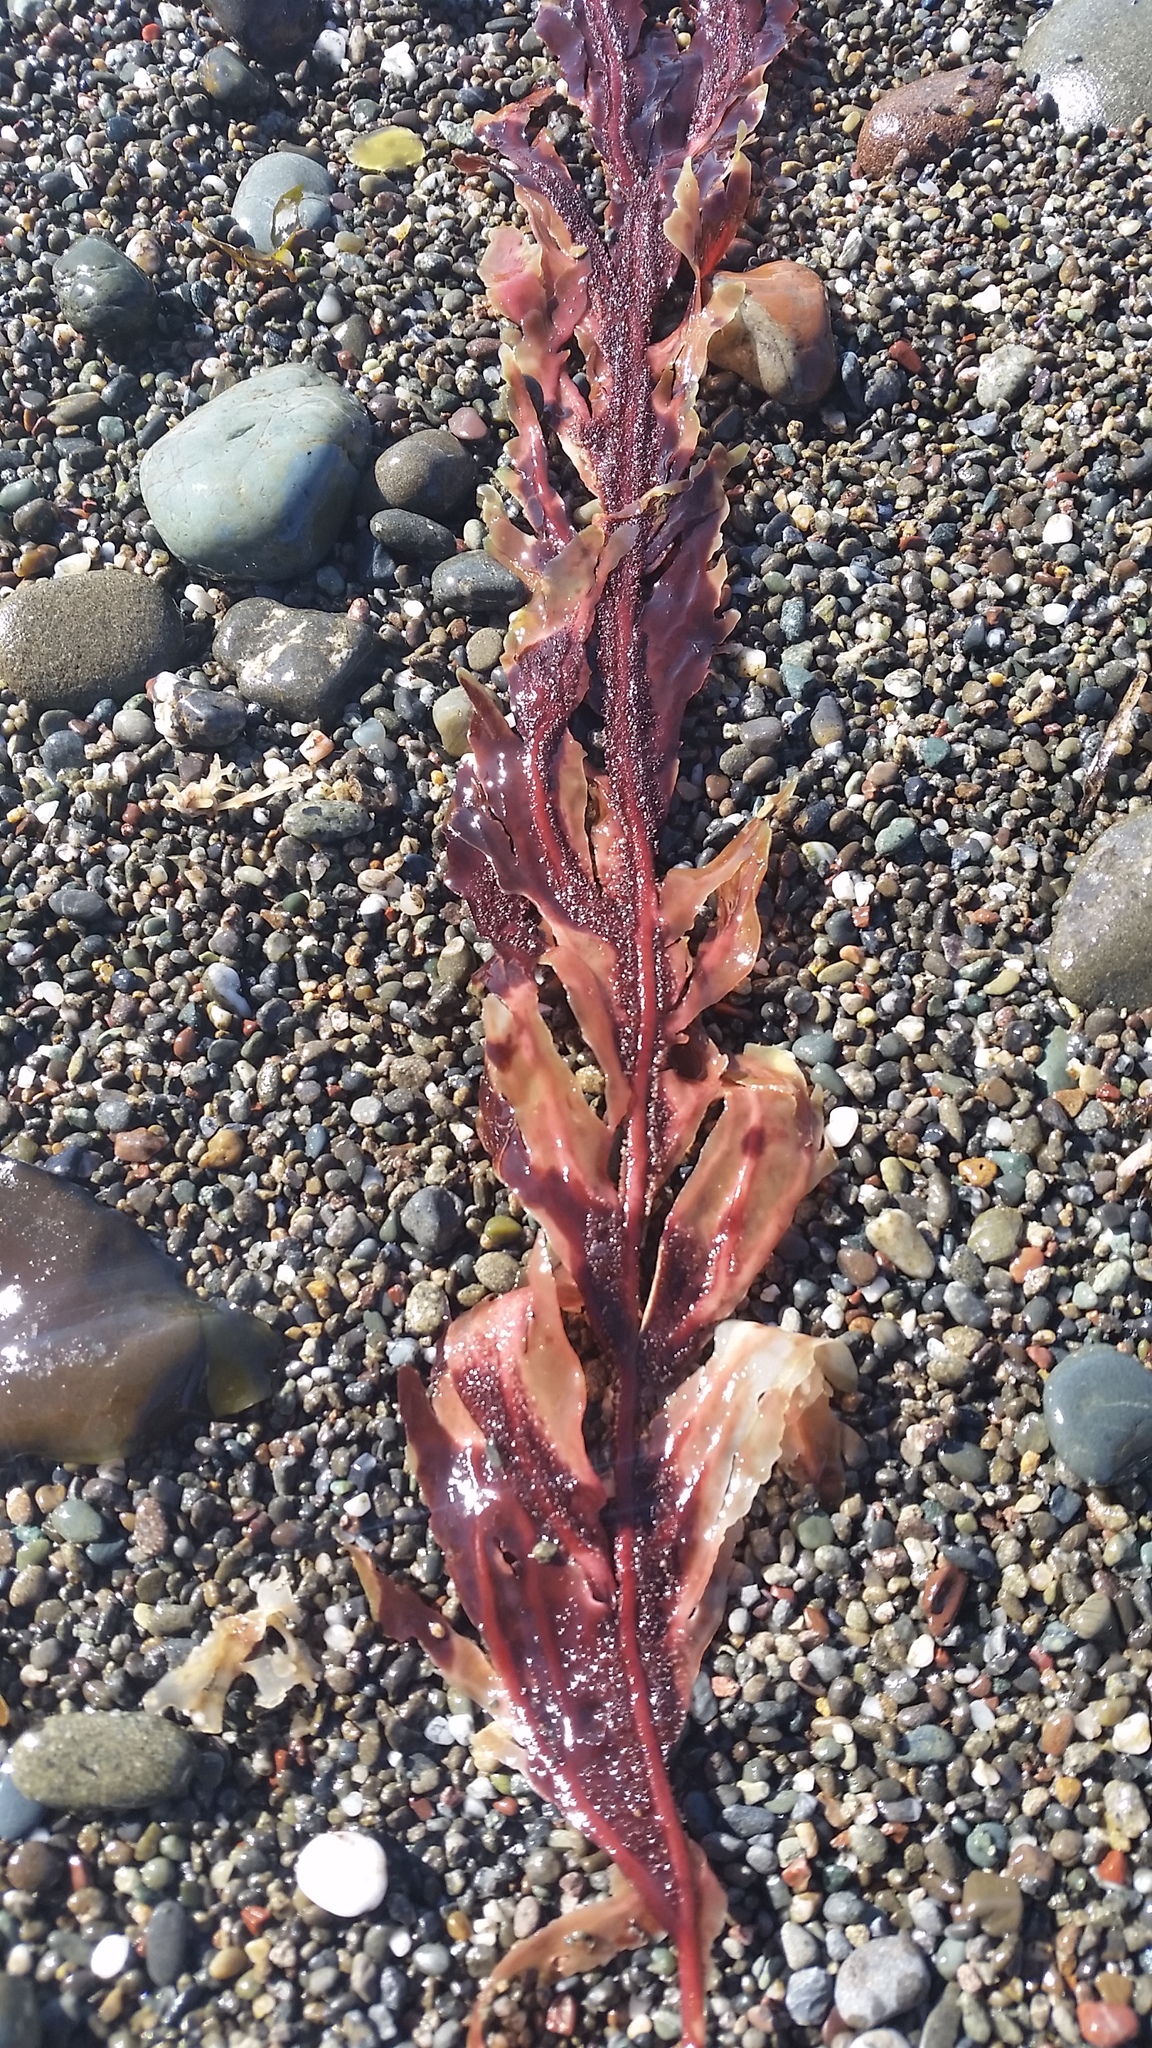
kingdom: Plantae
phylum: Rhodophyta
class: Florideophyceae
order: Gigartinales
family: Kallymeniaceae
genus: Erythrophyllum
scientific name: Erythrophyllum delesserioides
